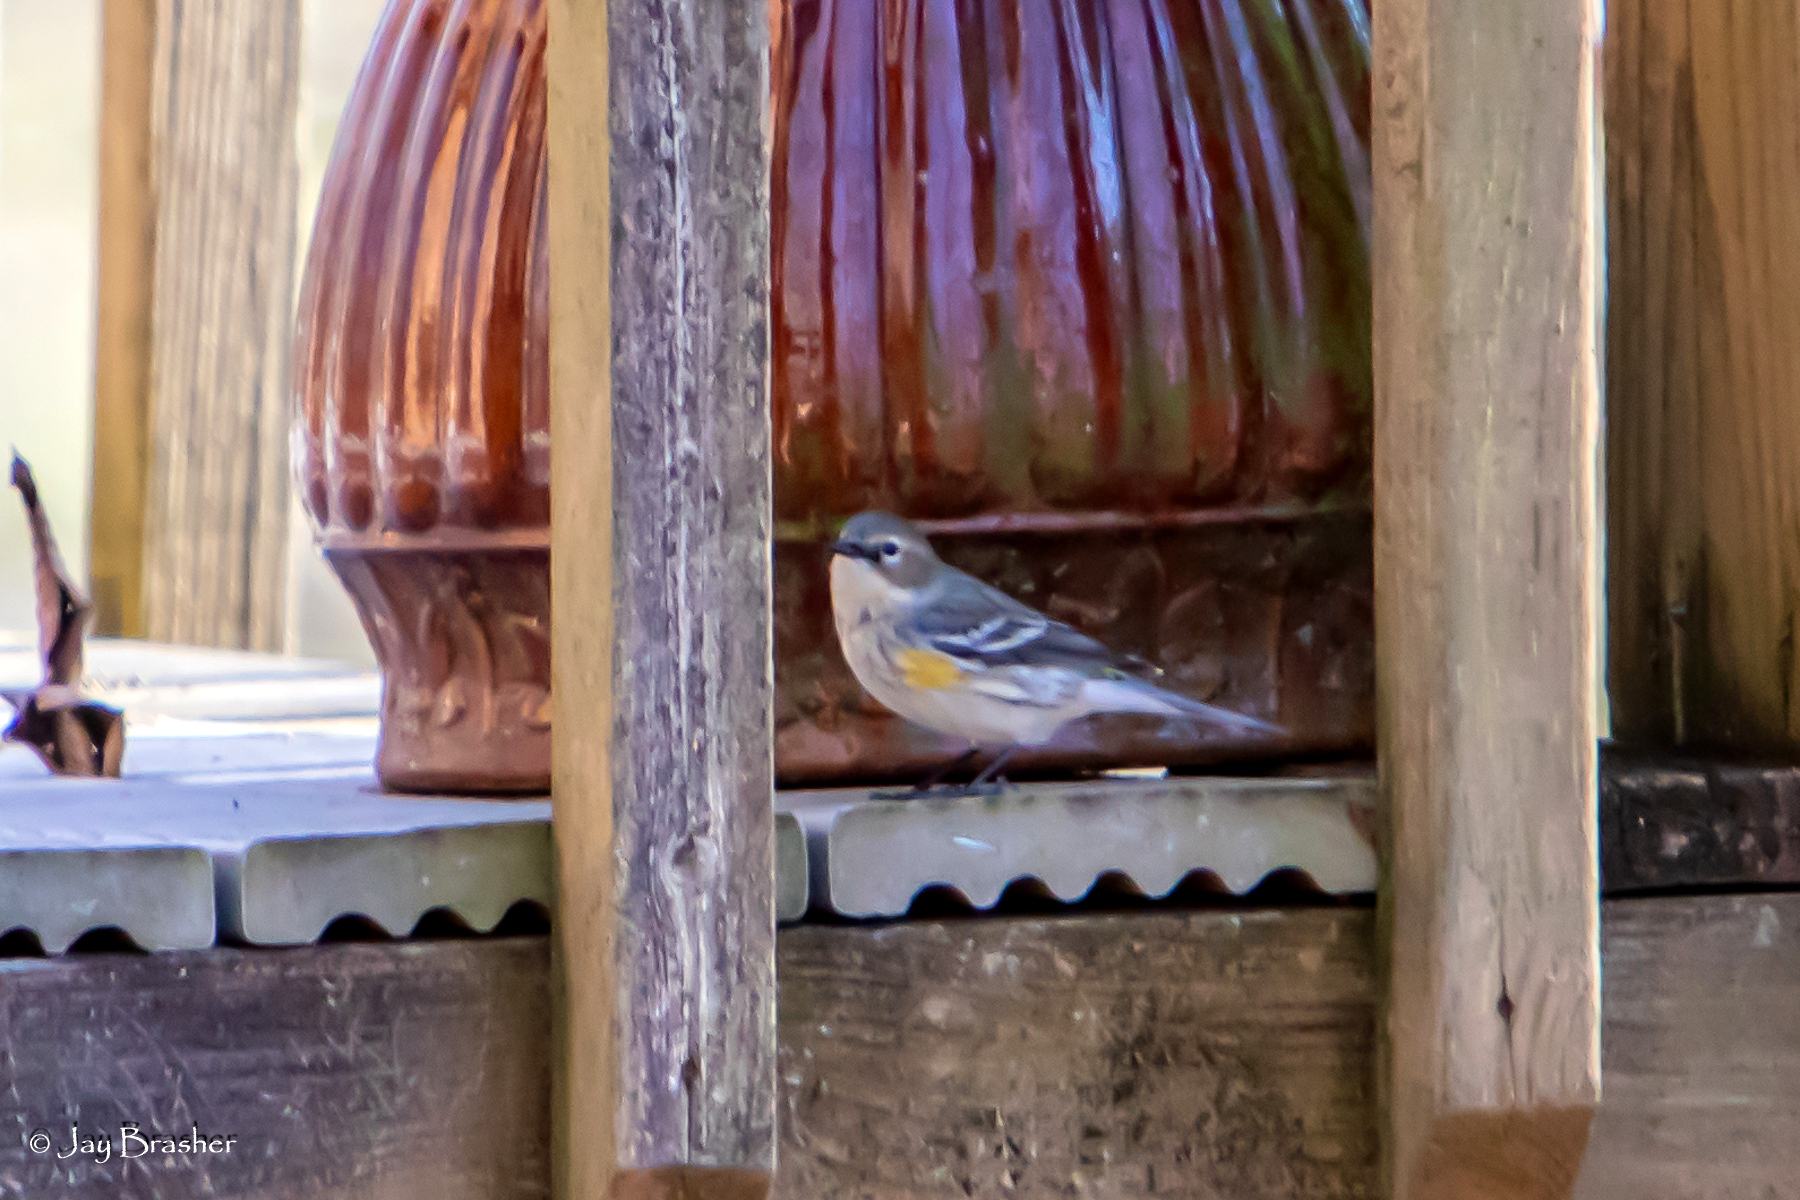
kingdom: Animalia
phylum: Chordata
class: Aves
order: Passeriformes
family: Parulidae
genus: Setophaga
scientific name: Setophaga coronata
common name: Myrtle warbler
